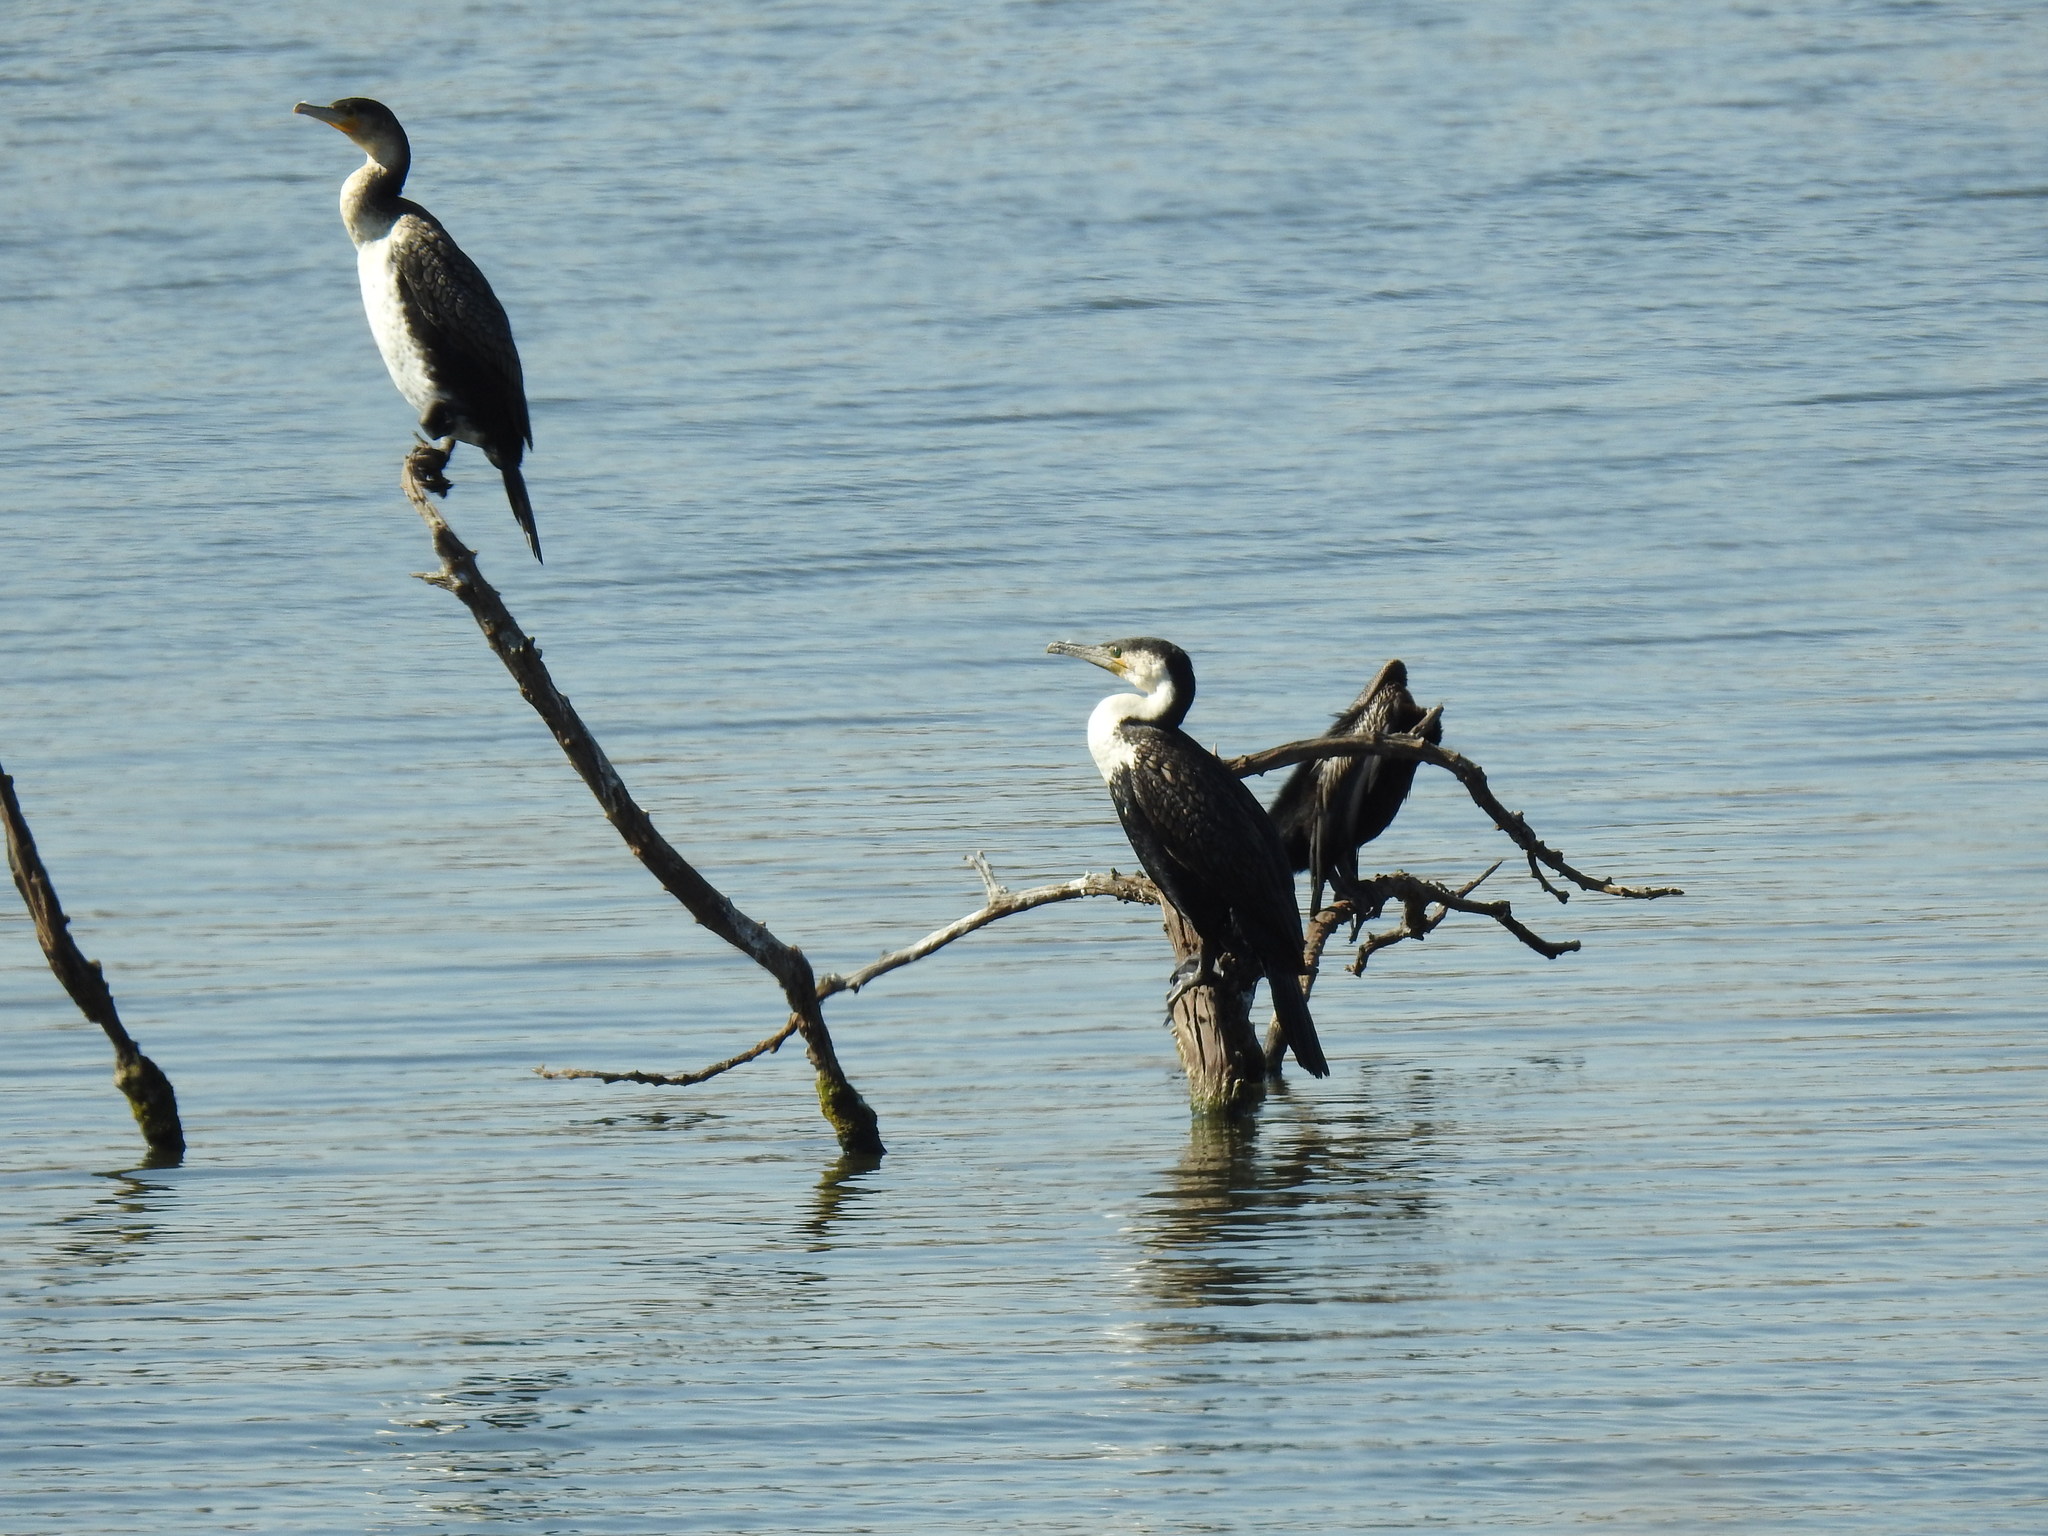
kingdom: Animalia
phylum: Chordata
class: Aves
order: Suliformes
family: Phalacrocoracidae
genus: Phalacrocorax
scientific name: Phalacrocorax carbo
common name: Great cormorant
